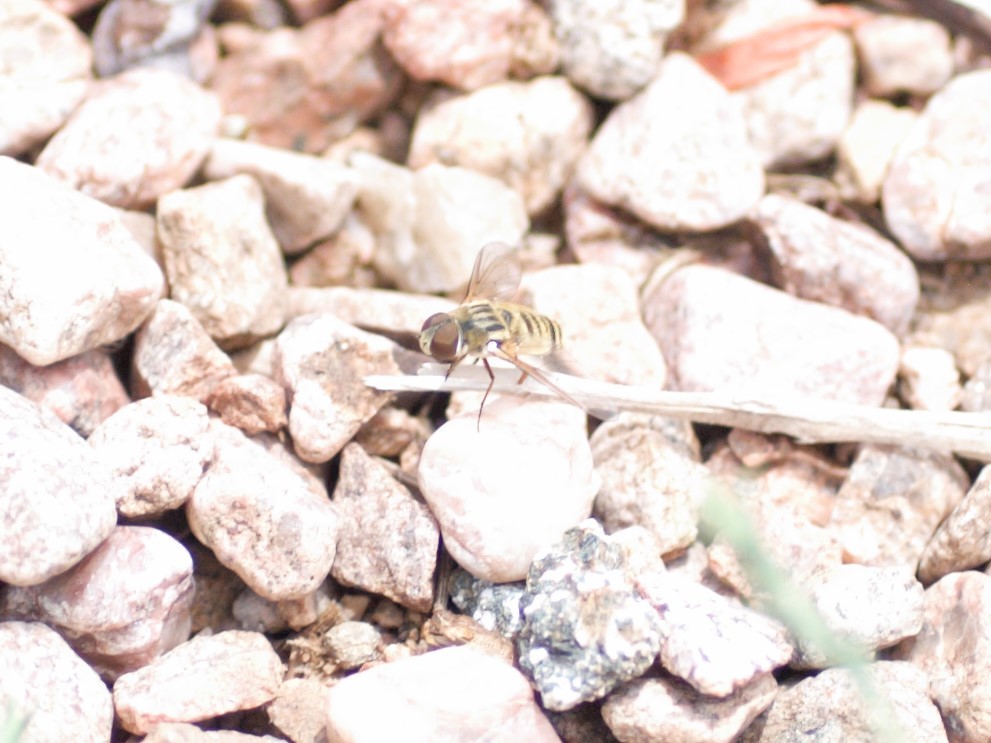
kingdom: Animalia
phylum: Arthropoda
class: Insecta
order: Diptera
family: Bombyliidae
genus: Villa
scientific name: Villa
